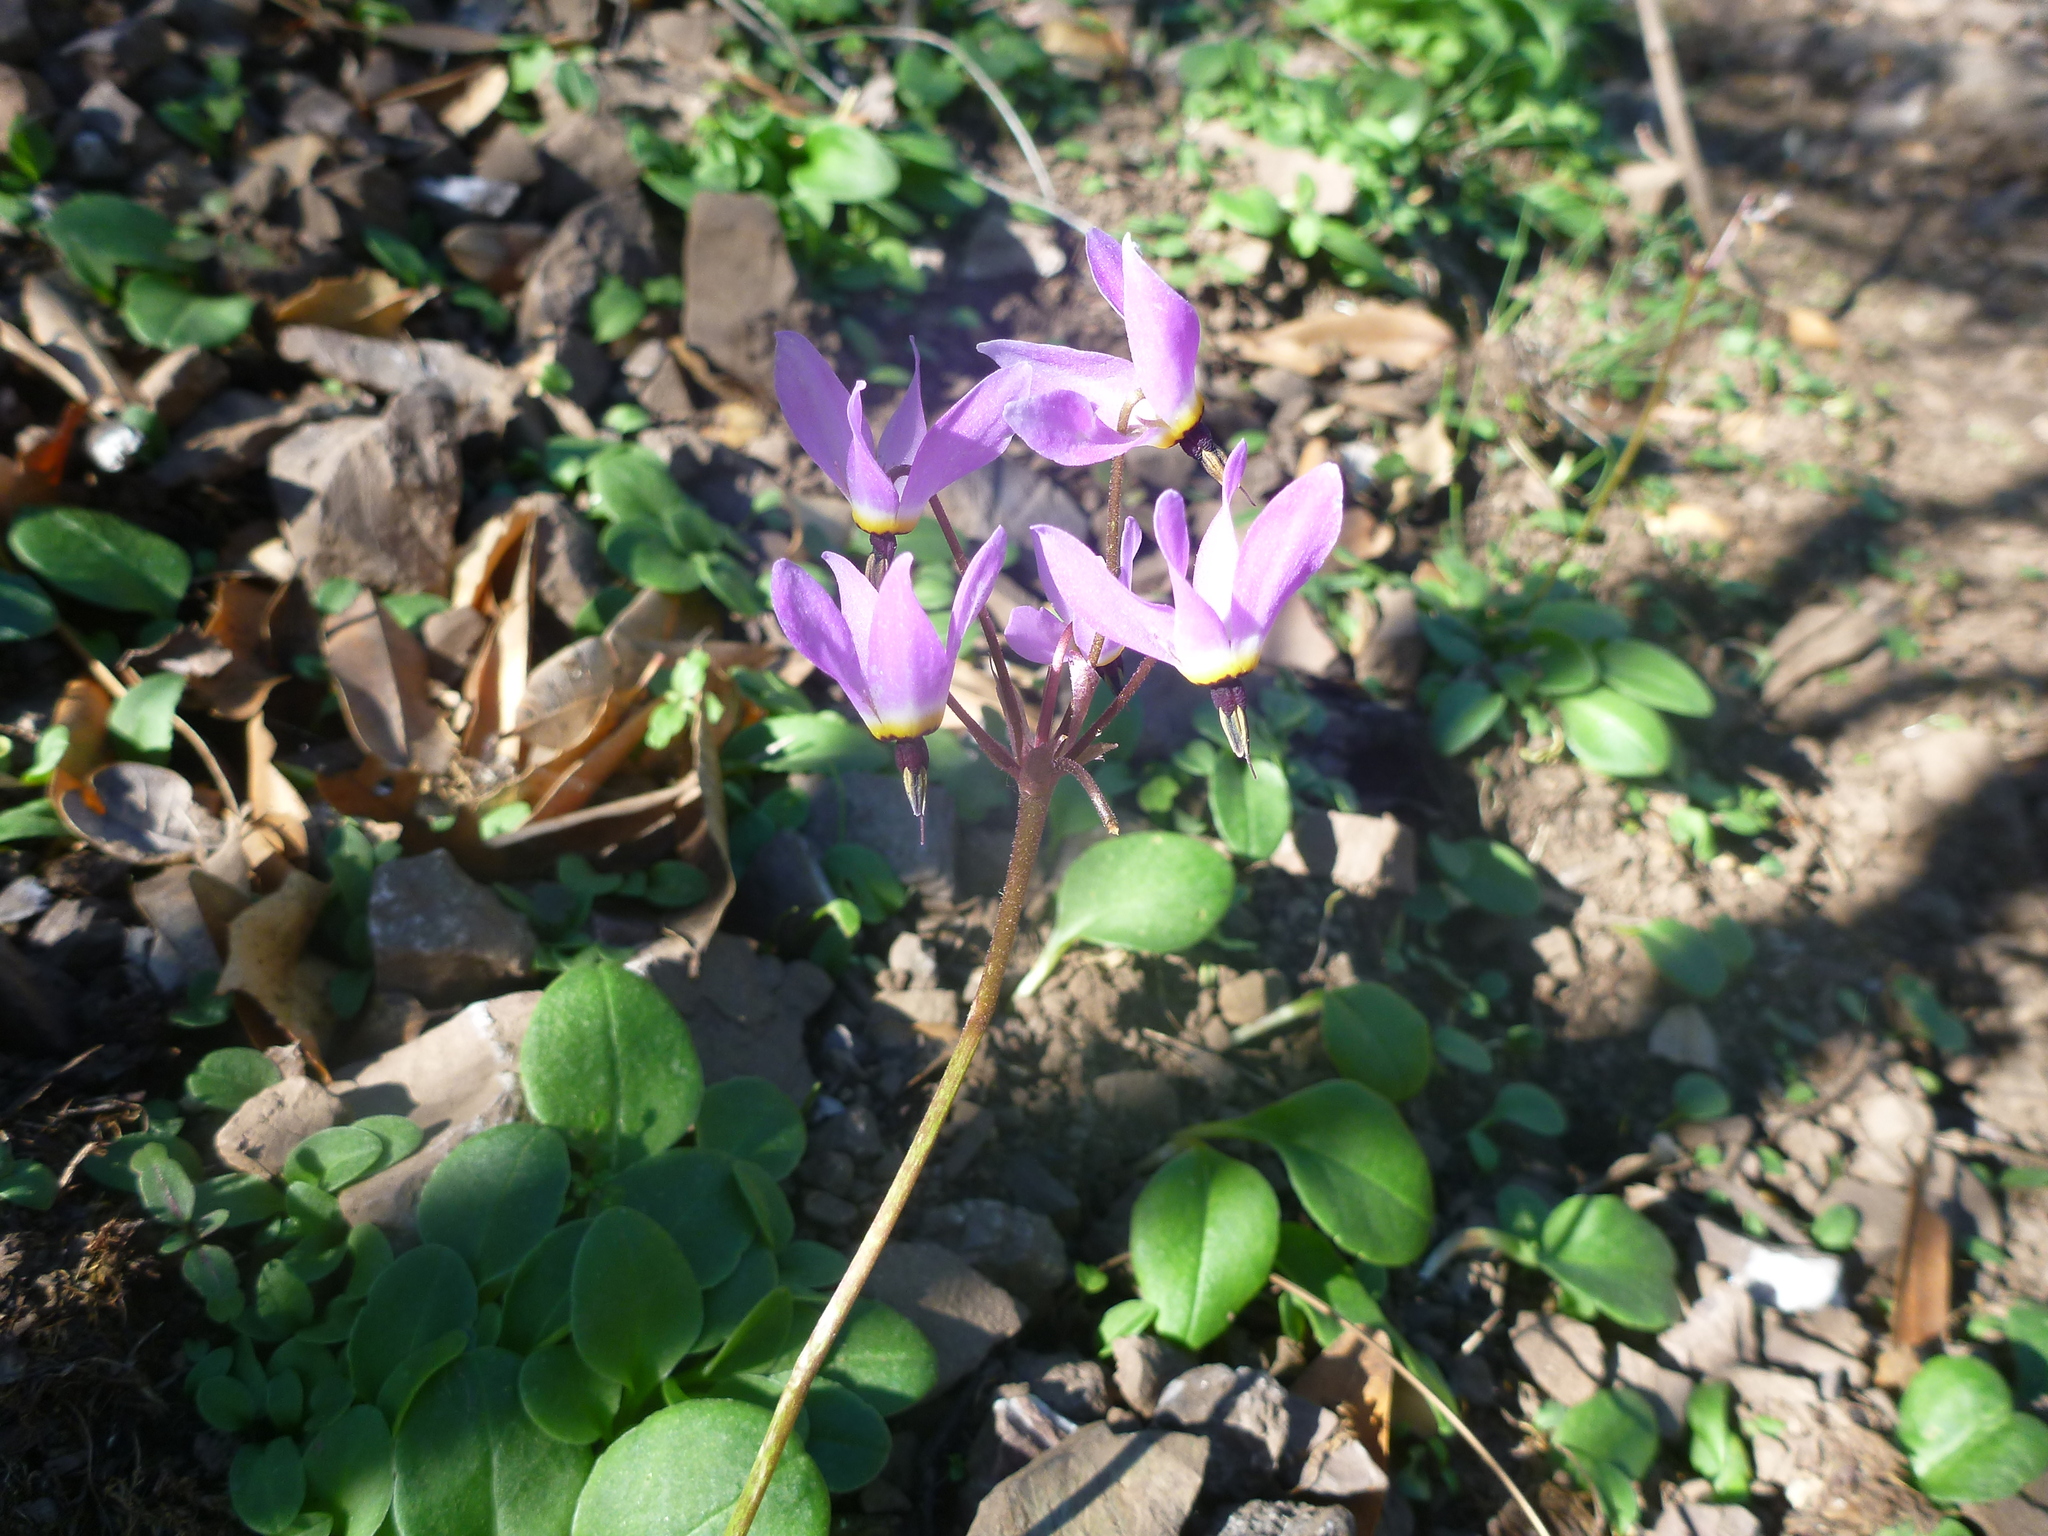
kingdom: Plantae
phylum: Tracheophyta
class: Magnoliopsida
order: Ericales
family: Primulaceae
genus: Dodecatheon
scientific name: Dodecatheon hendersonii
